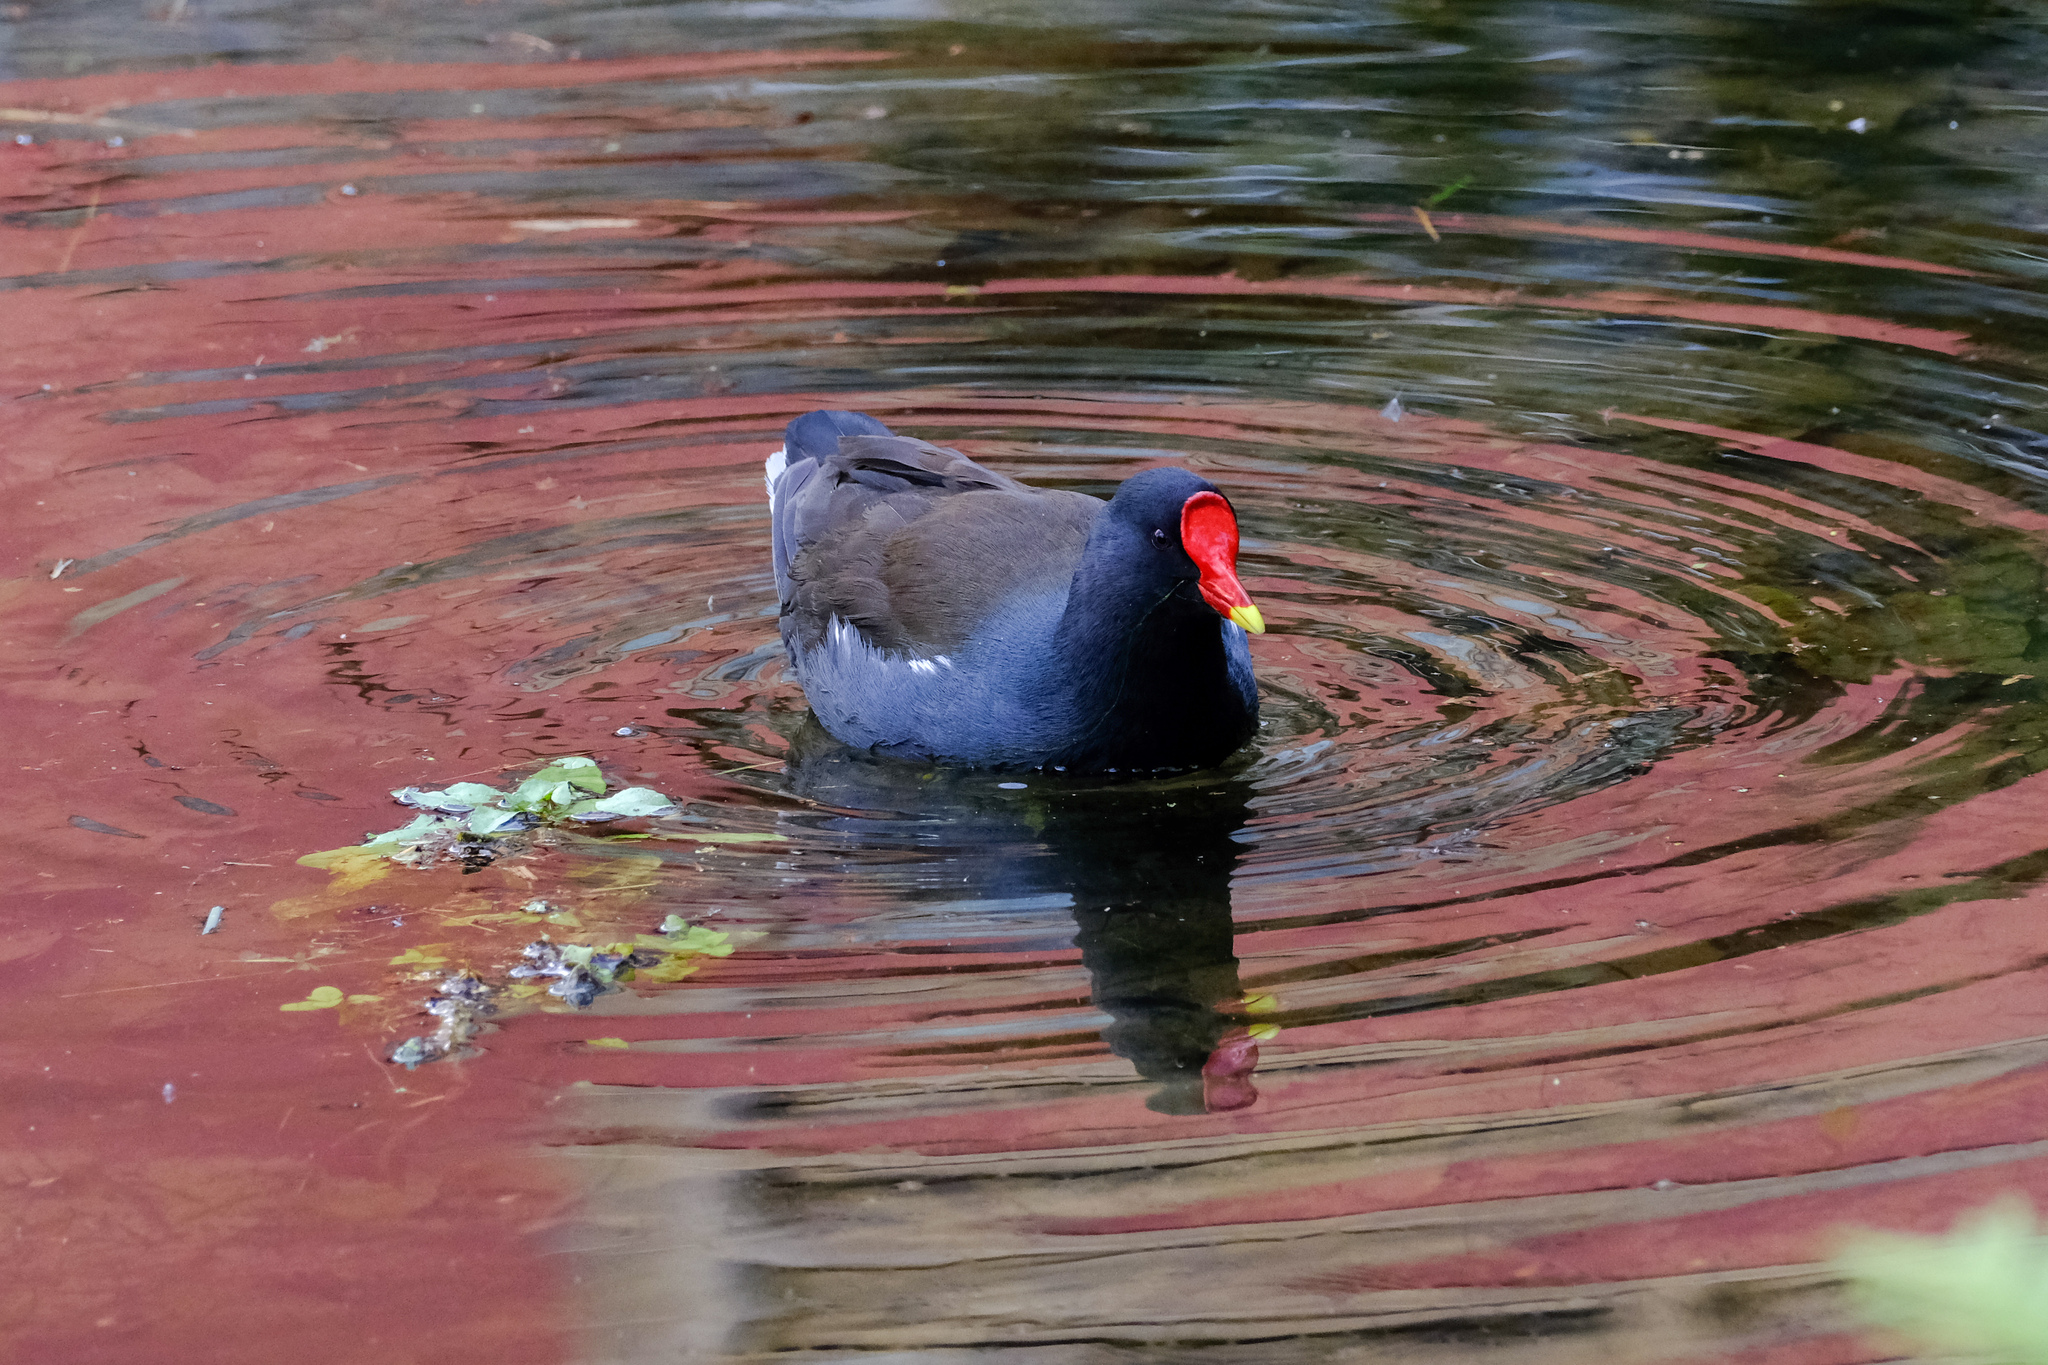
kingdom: Animalia
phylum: Chordata
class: Aves
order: Gruiformes
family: Rallidae
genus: Gallinula
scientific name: Gallinula chloropus
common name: Common moorhen
